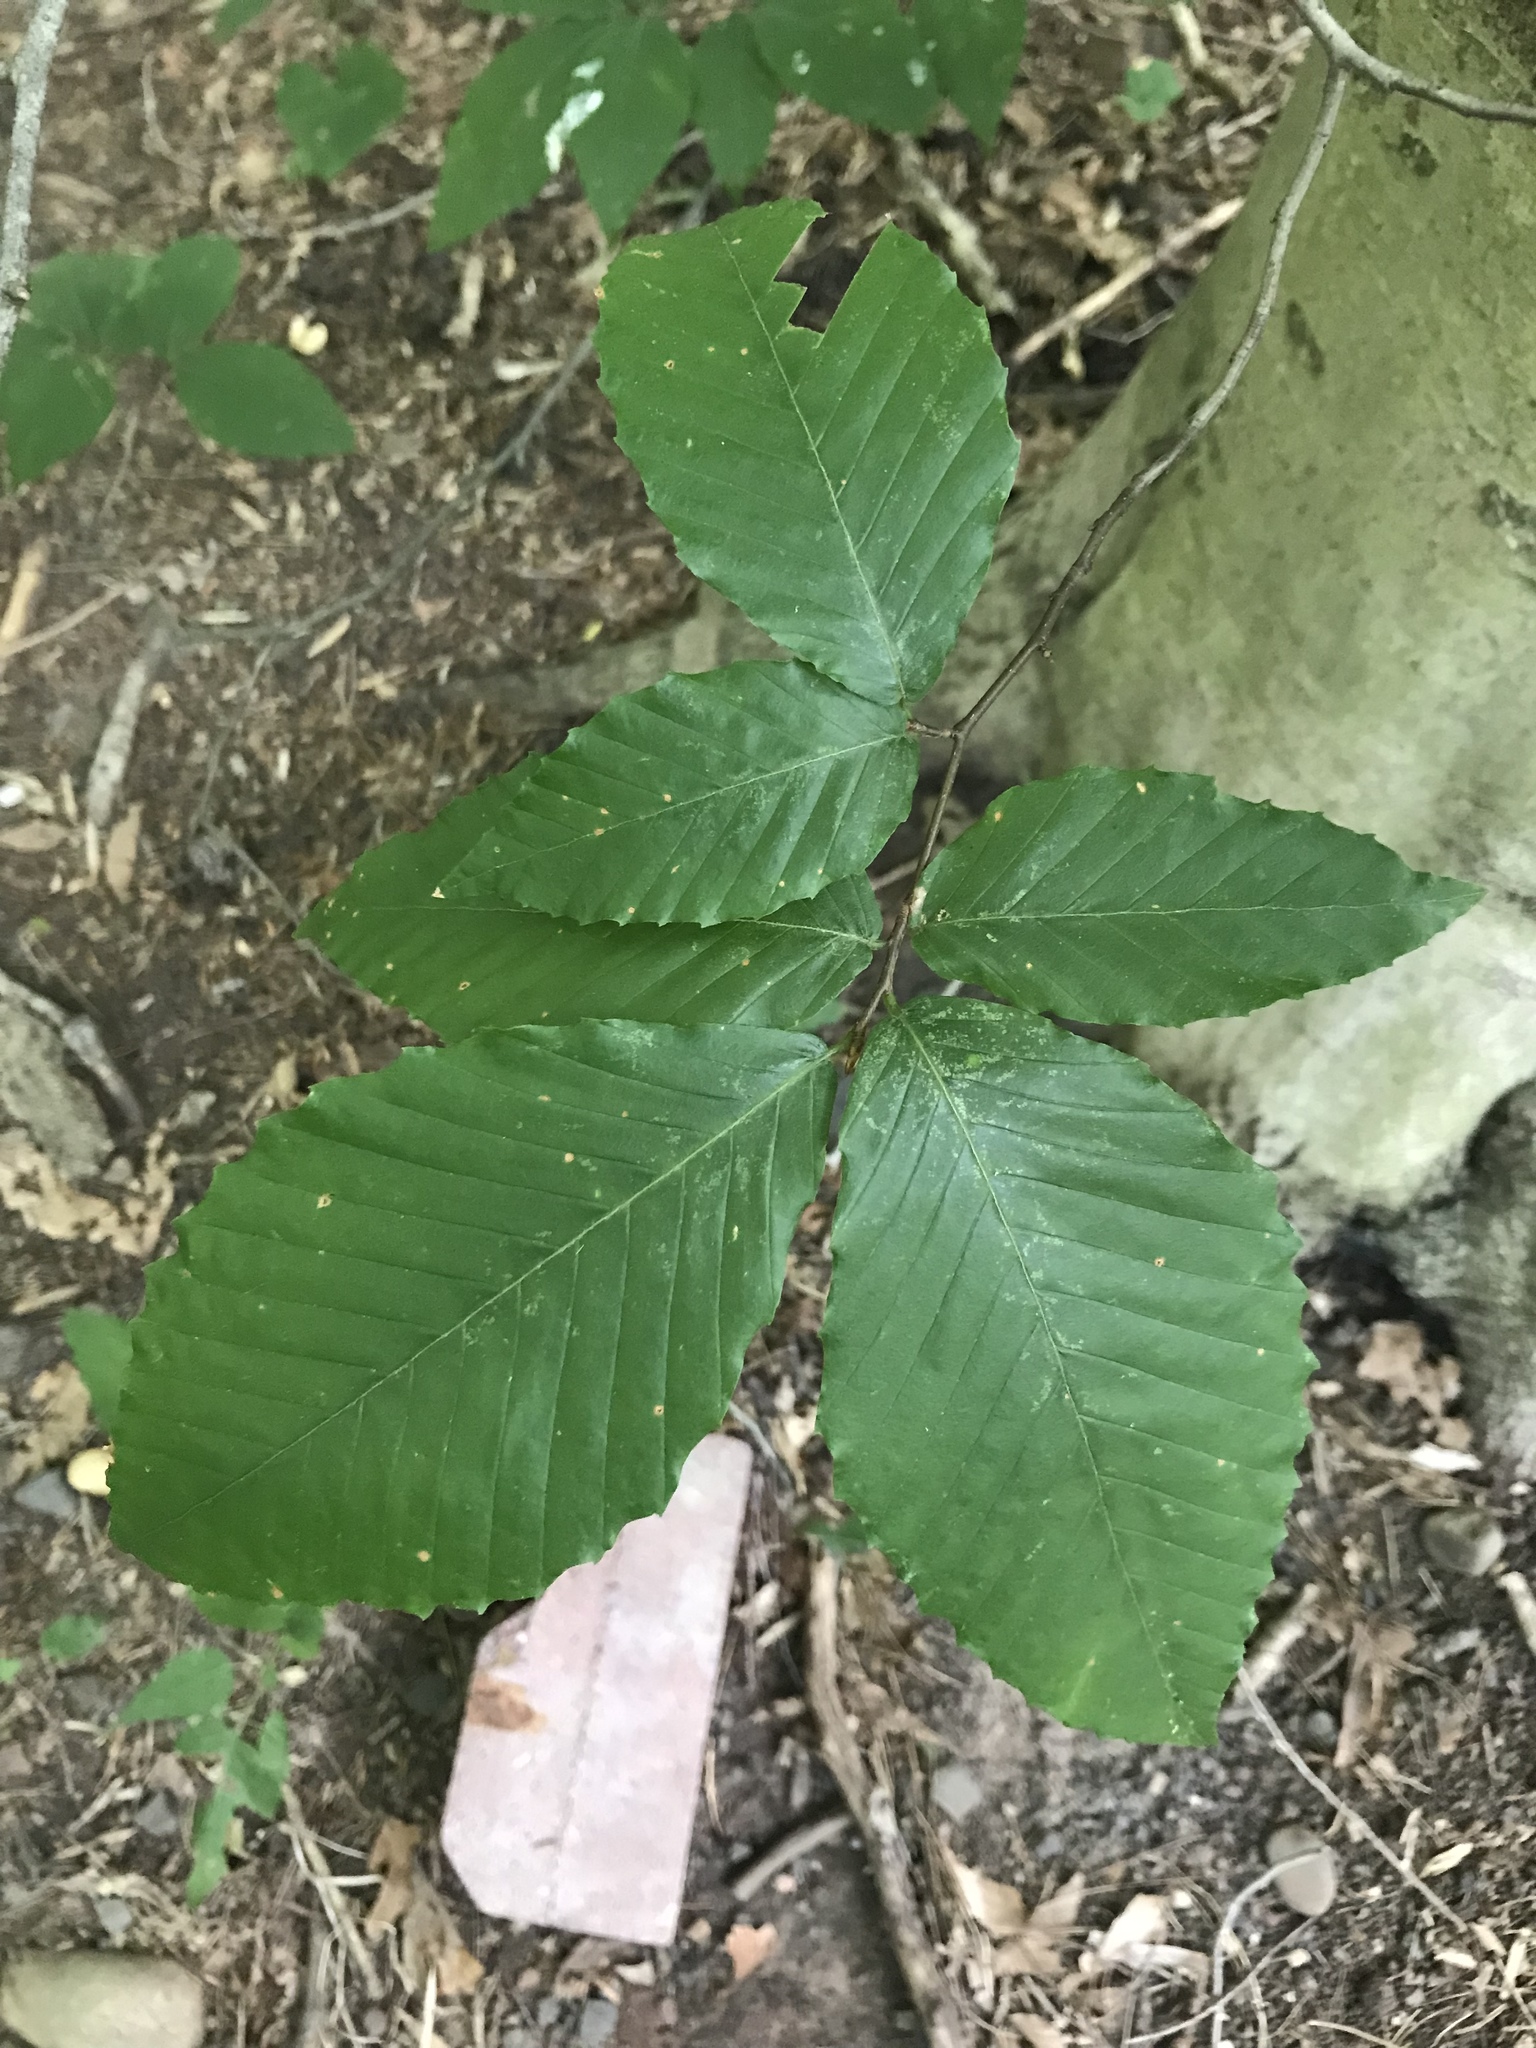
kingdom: Plantae
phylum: Tracheophyta
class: Magnoliopsida
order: Fagales
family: Fagaceae
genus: Fagus
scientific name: Fagus grandifolia
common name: American beech
